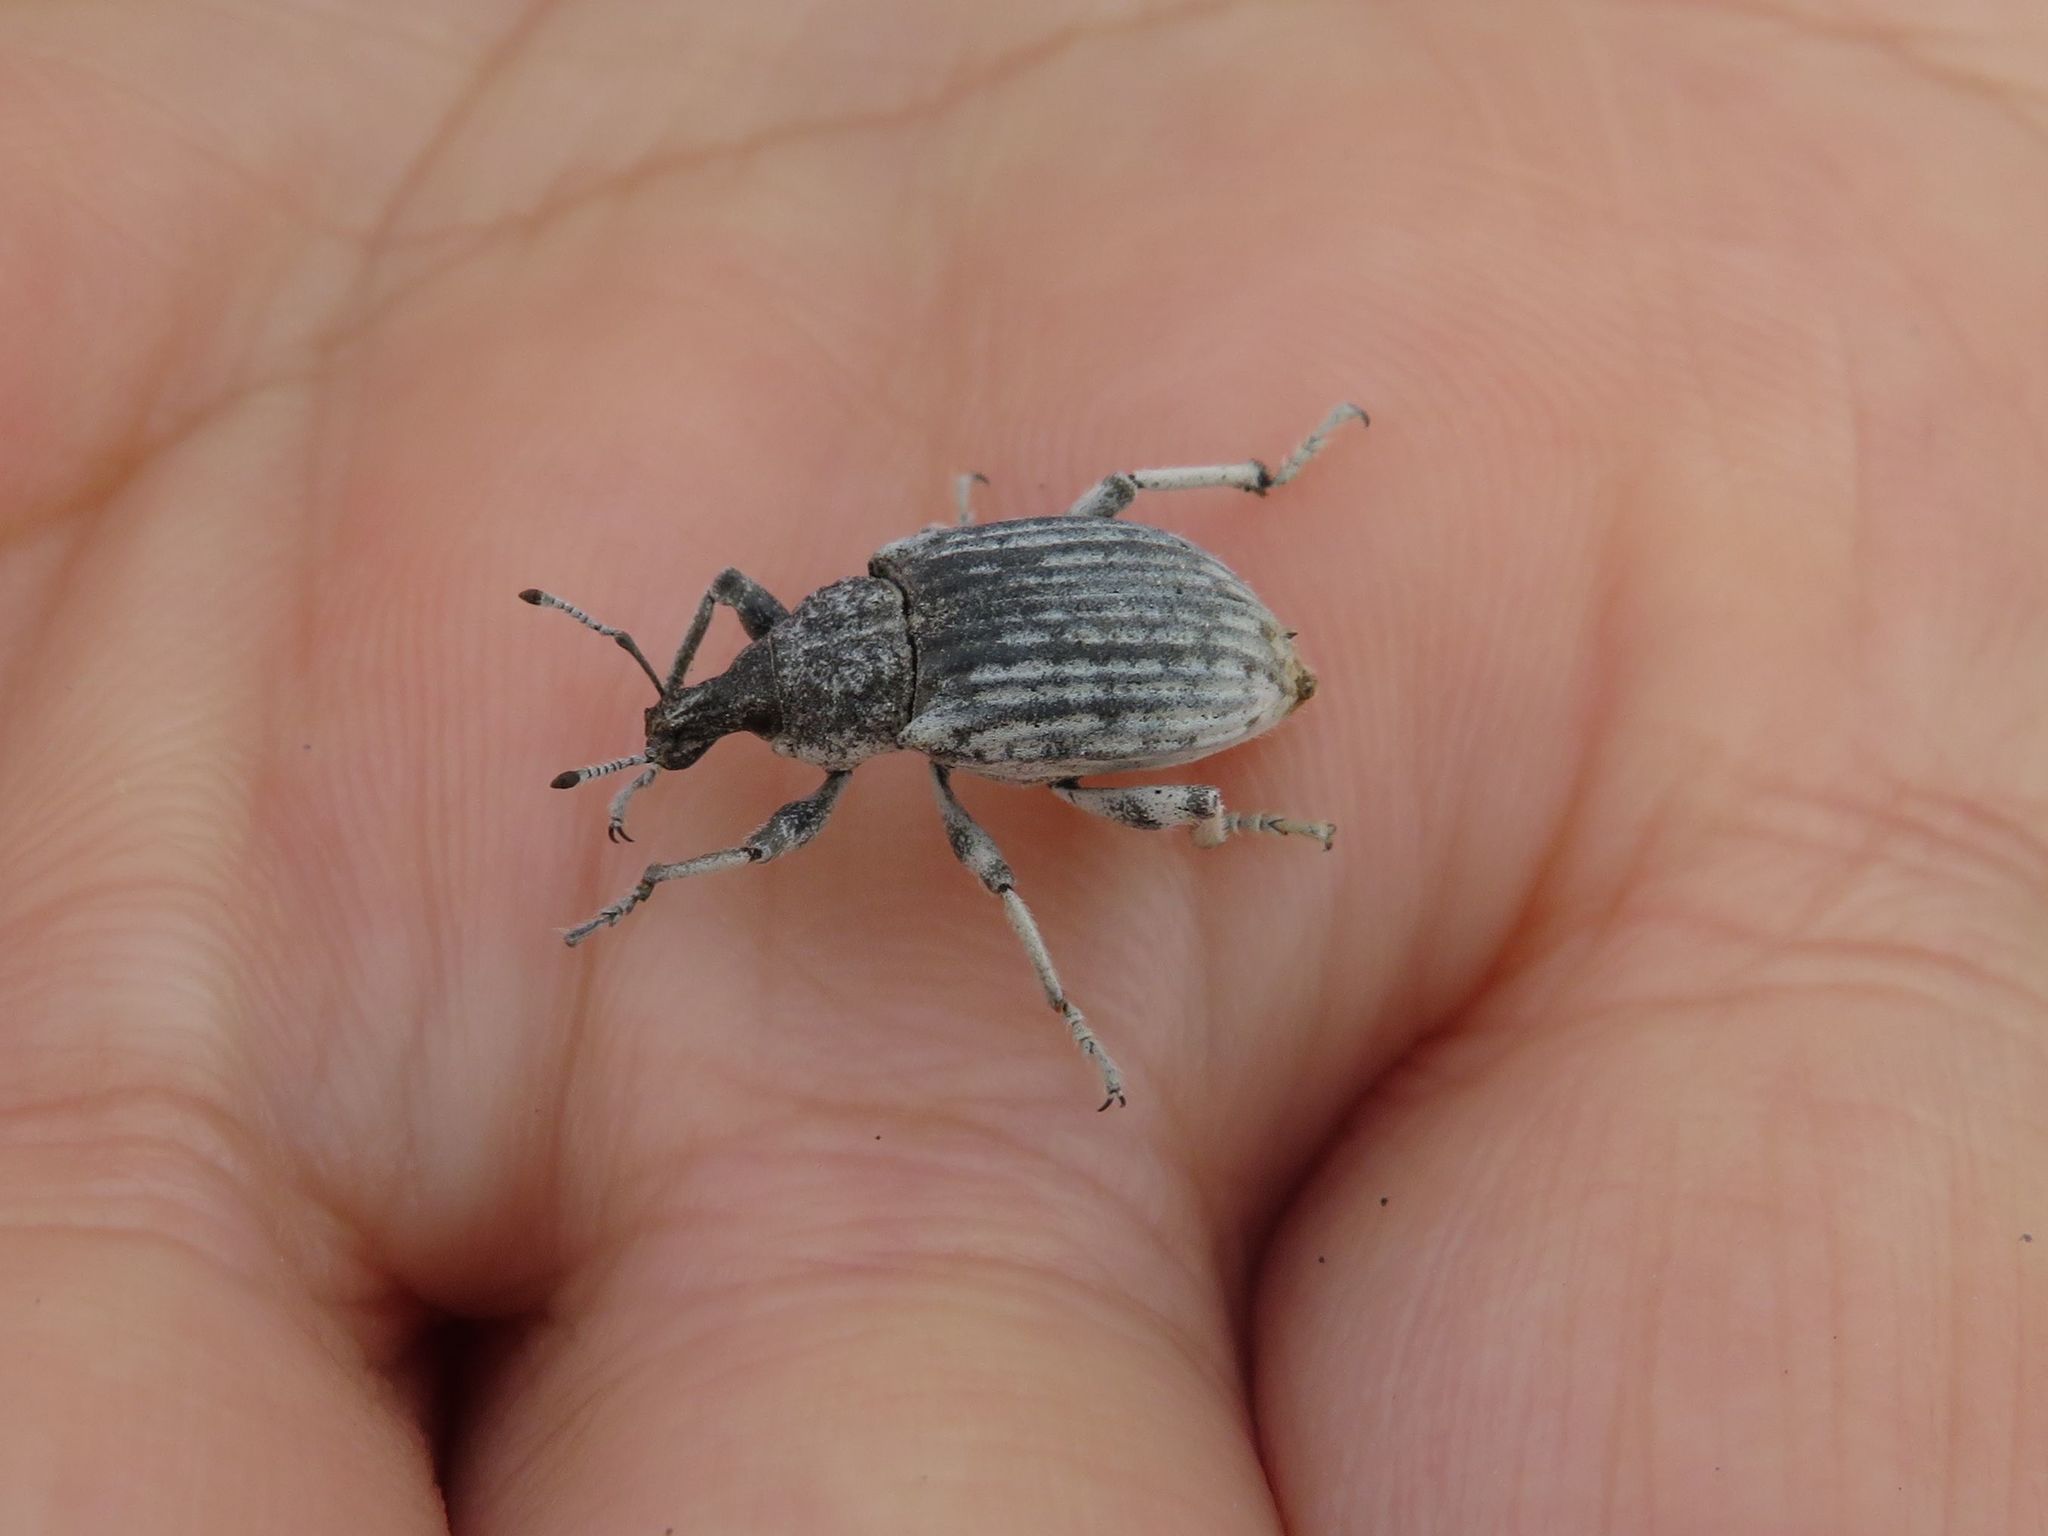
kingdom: Animalia
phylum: Arthropoda
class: Insecta
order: Coleoptera
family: Curculionidae
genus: Opseotapinotus
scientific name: Opseotapinotus caudatus
